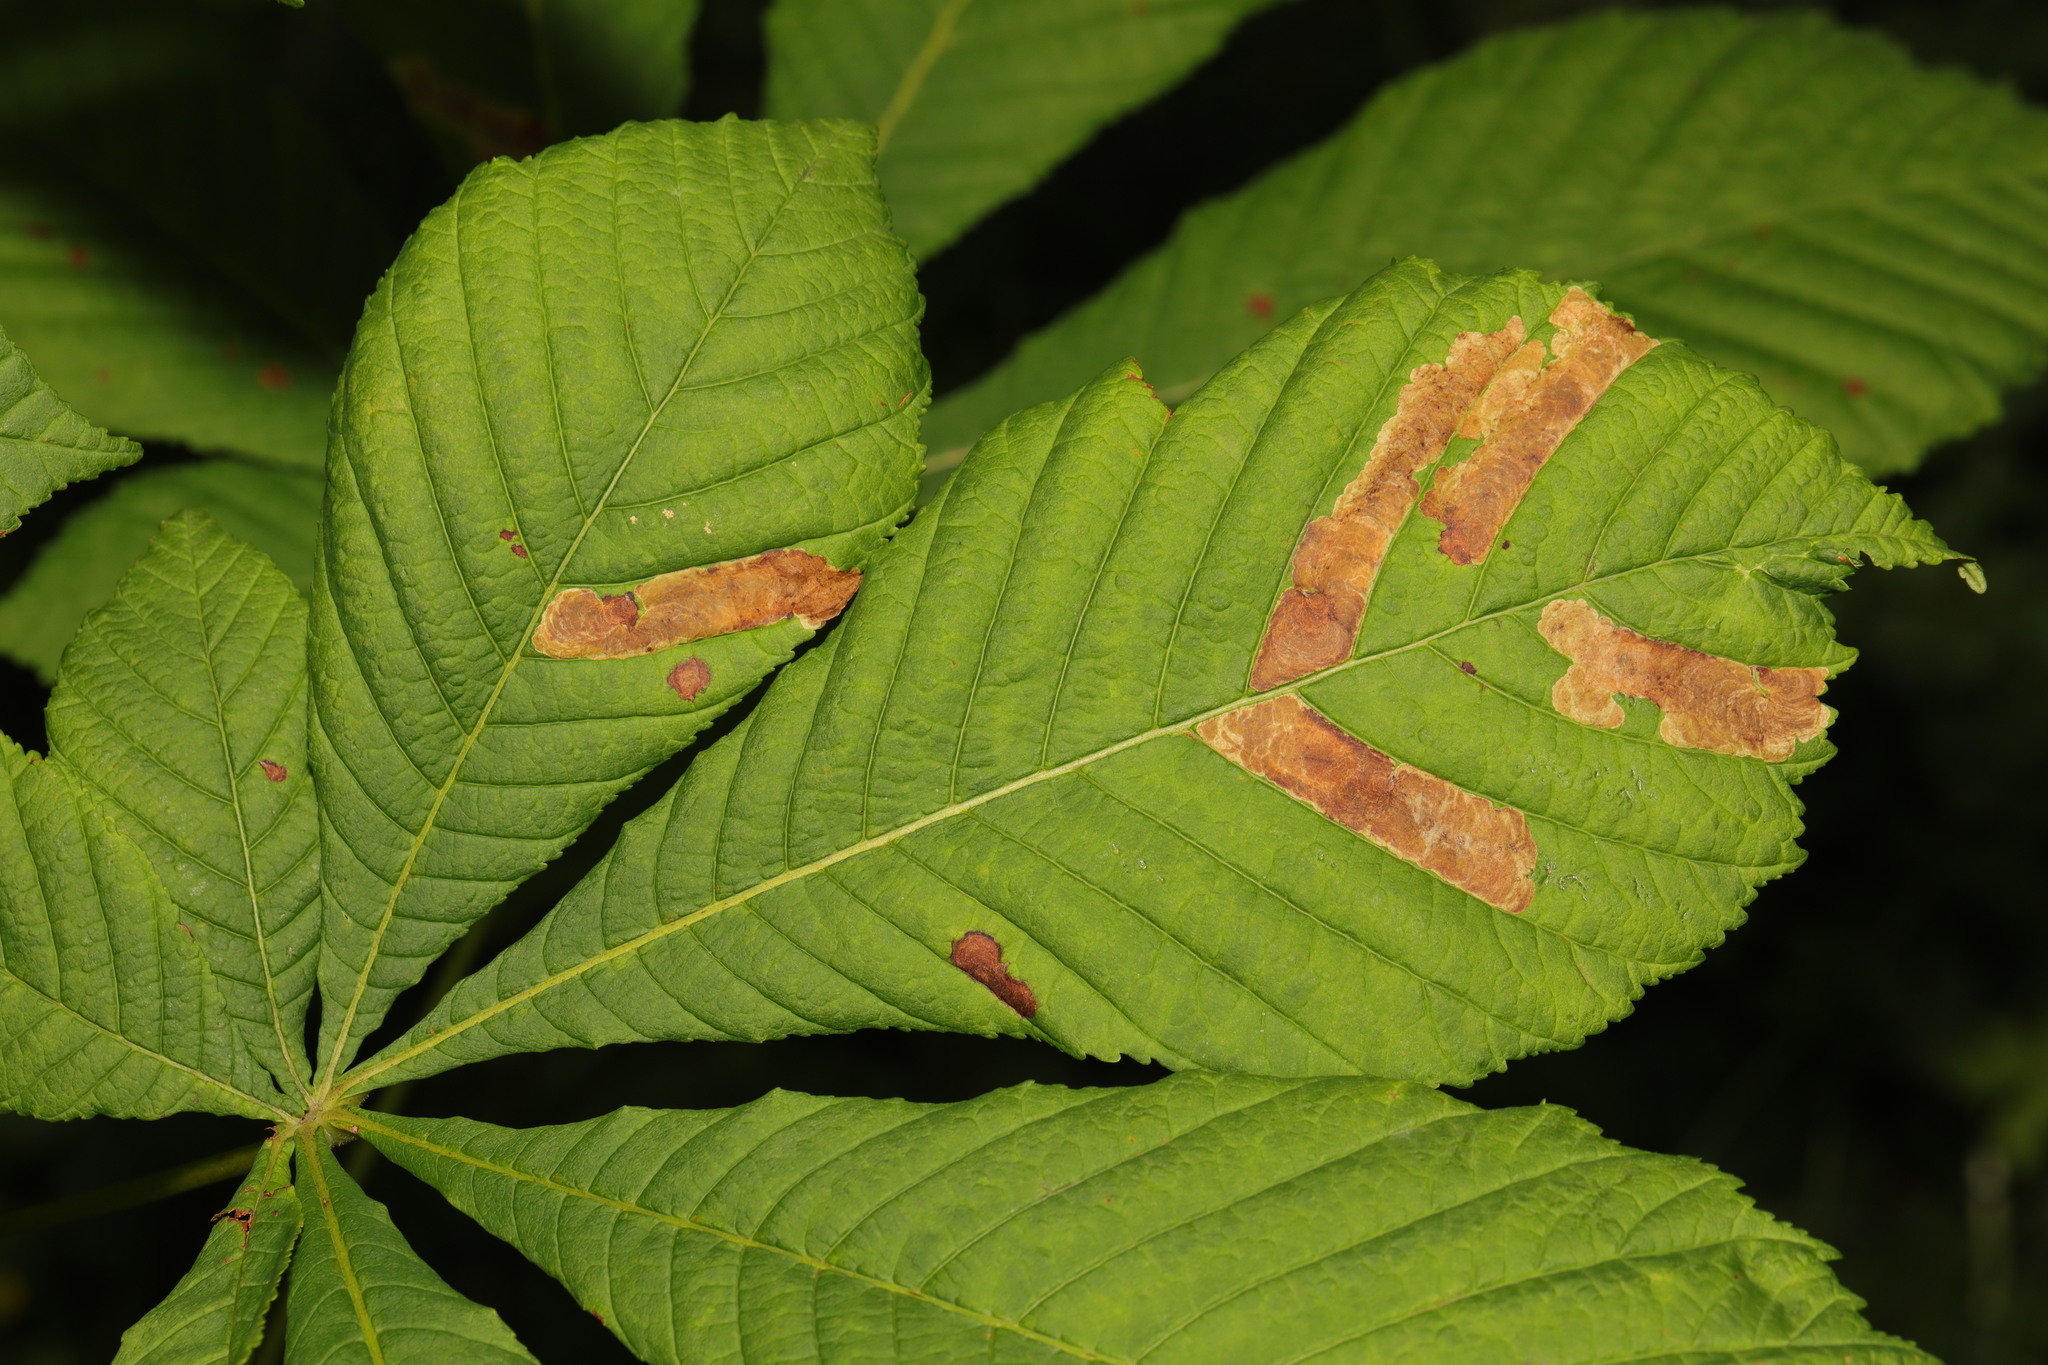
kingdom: Animalia
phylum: Arthropoda
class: Insecta
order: Lepidoptera
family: Gracillariidae
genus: Cameraria
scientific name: Cameraria ohridella
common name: Horse-chestnut leaf-miner
